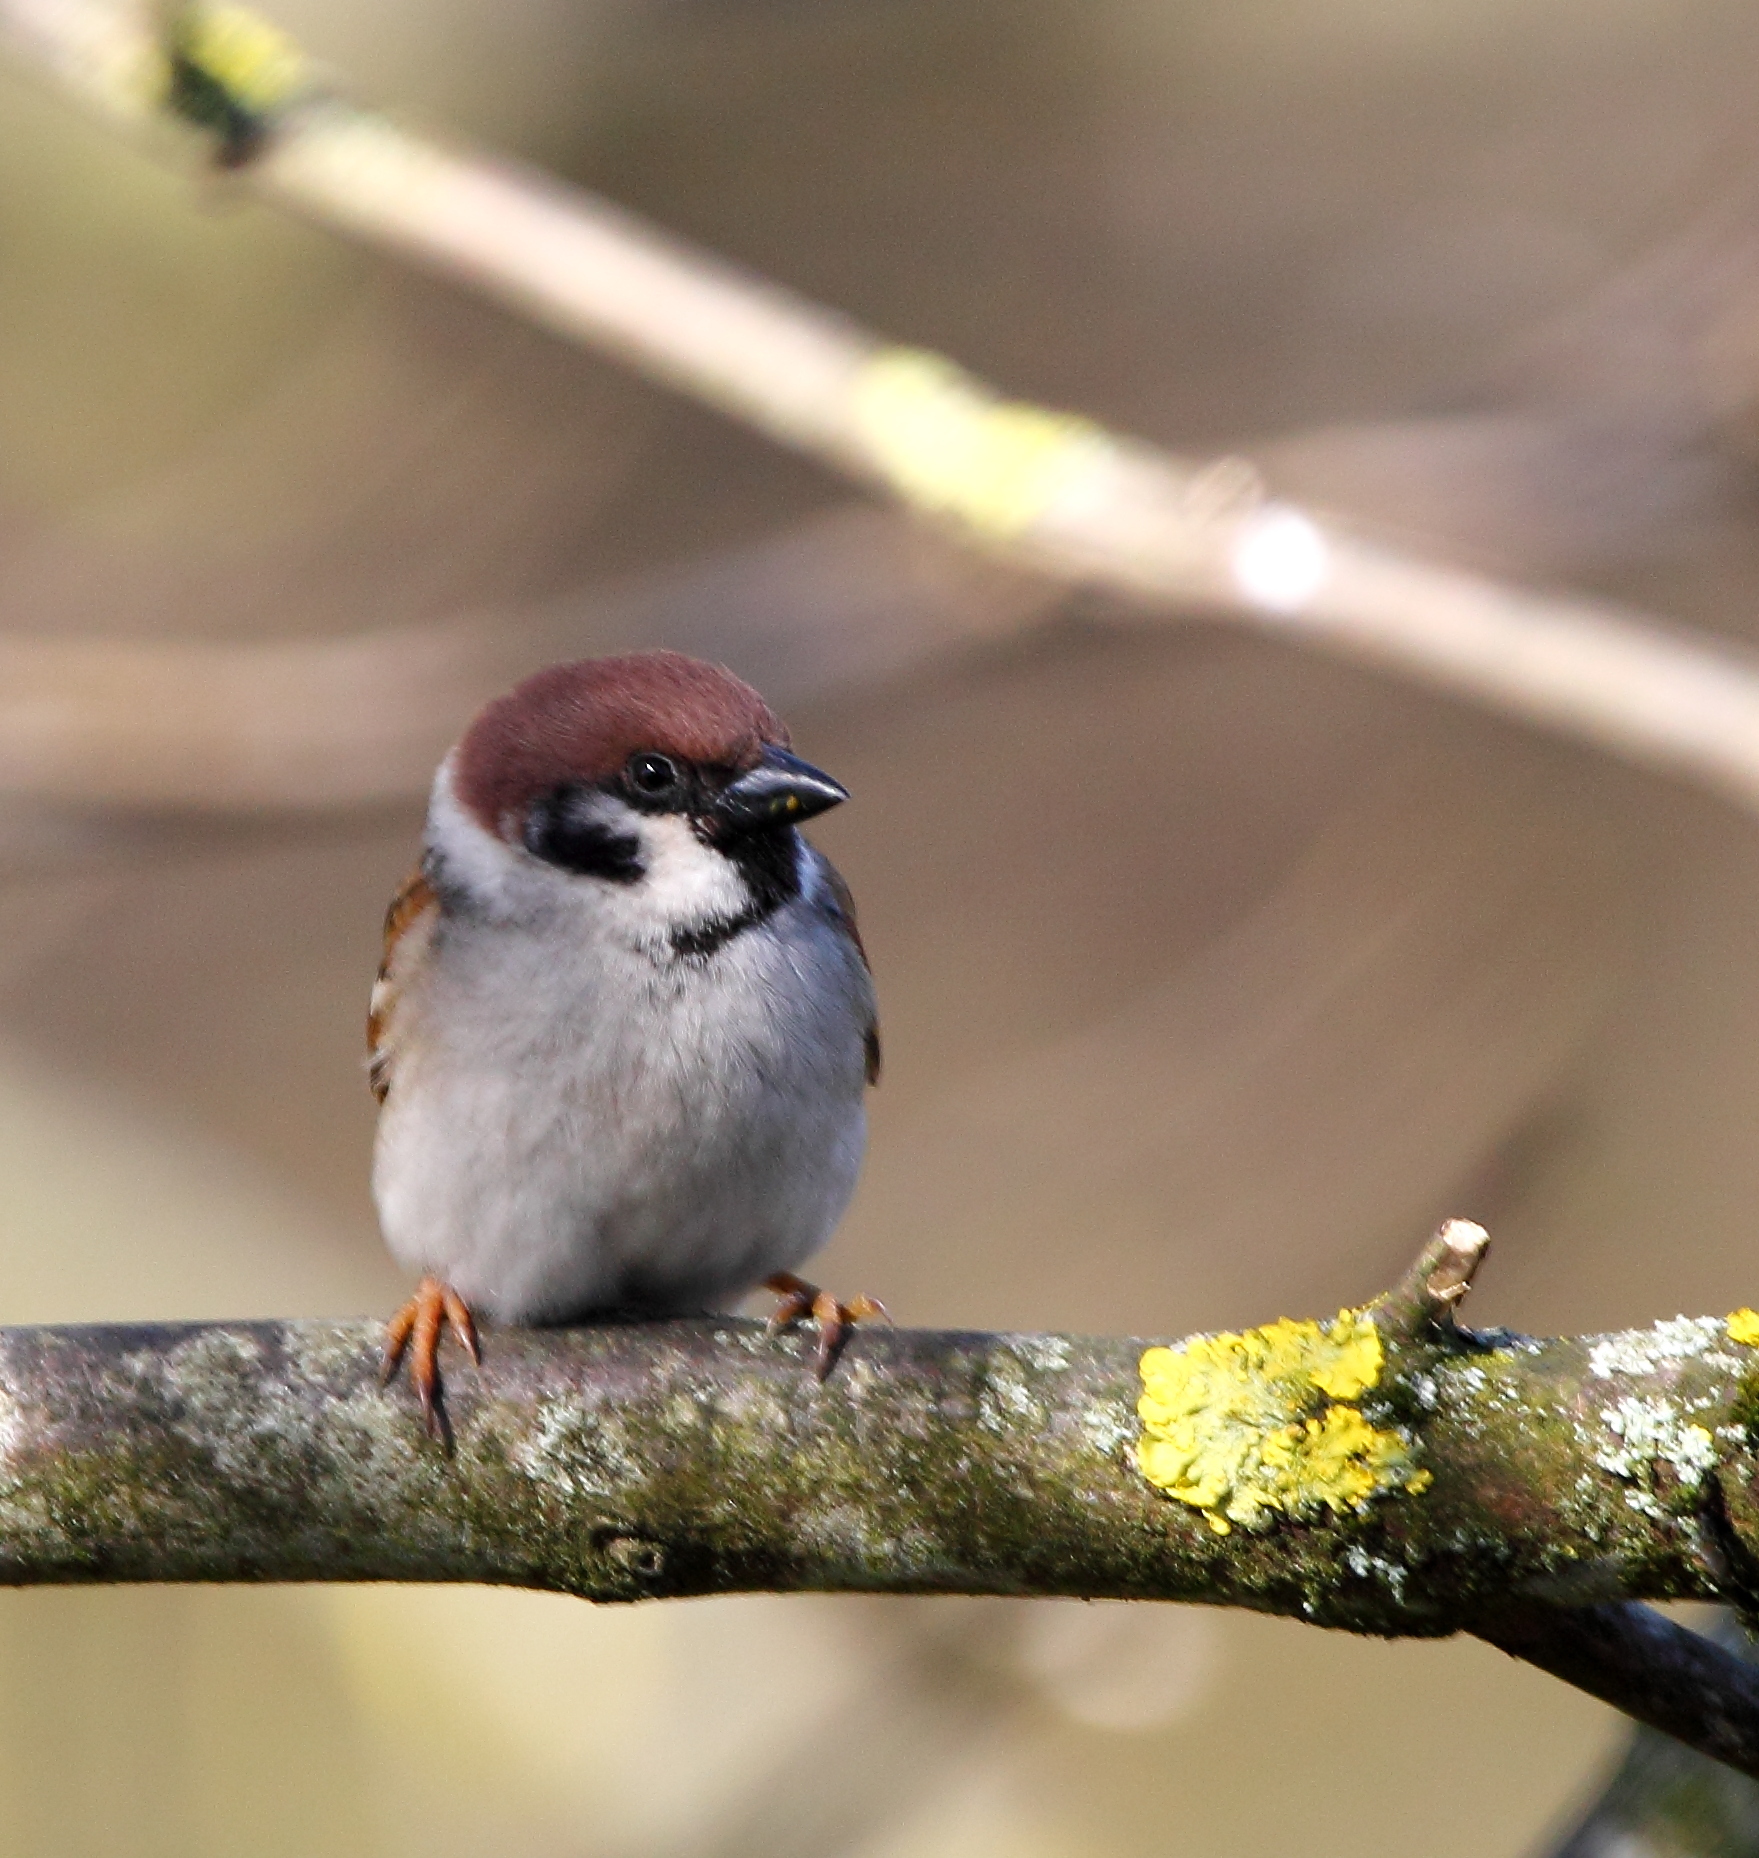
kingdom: Animalia
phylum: Chordata
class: Aves
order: Passeriformes
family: Passeridae
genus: Passer
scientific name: Passer montanus
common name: Eurasian tree sparrow
